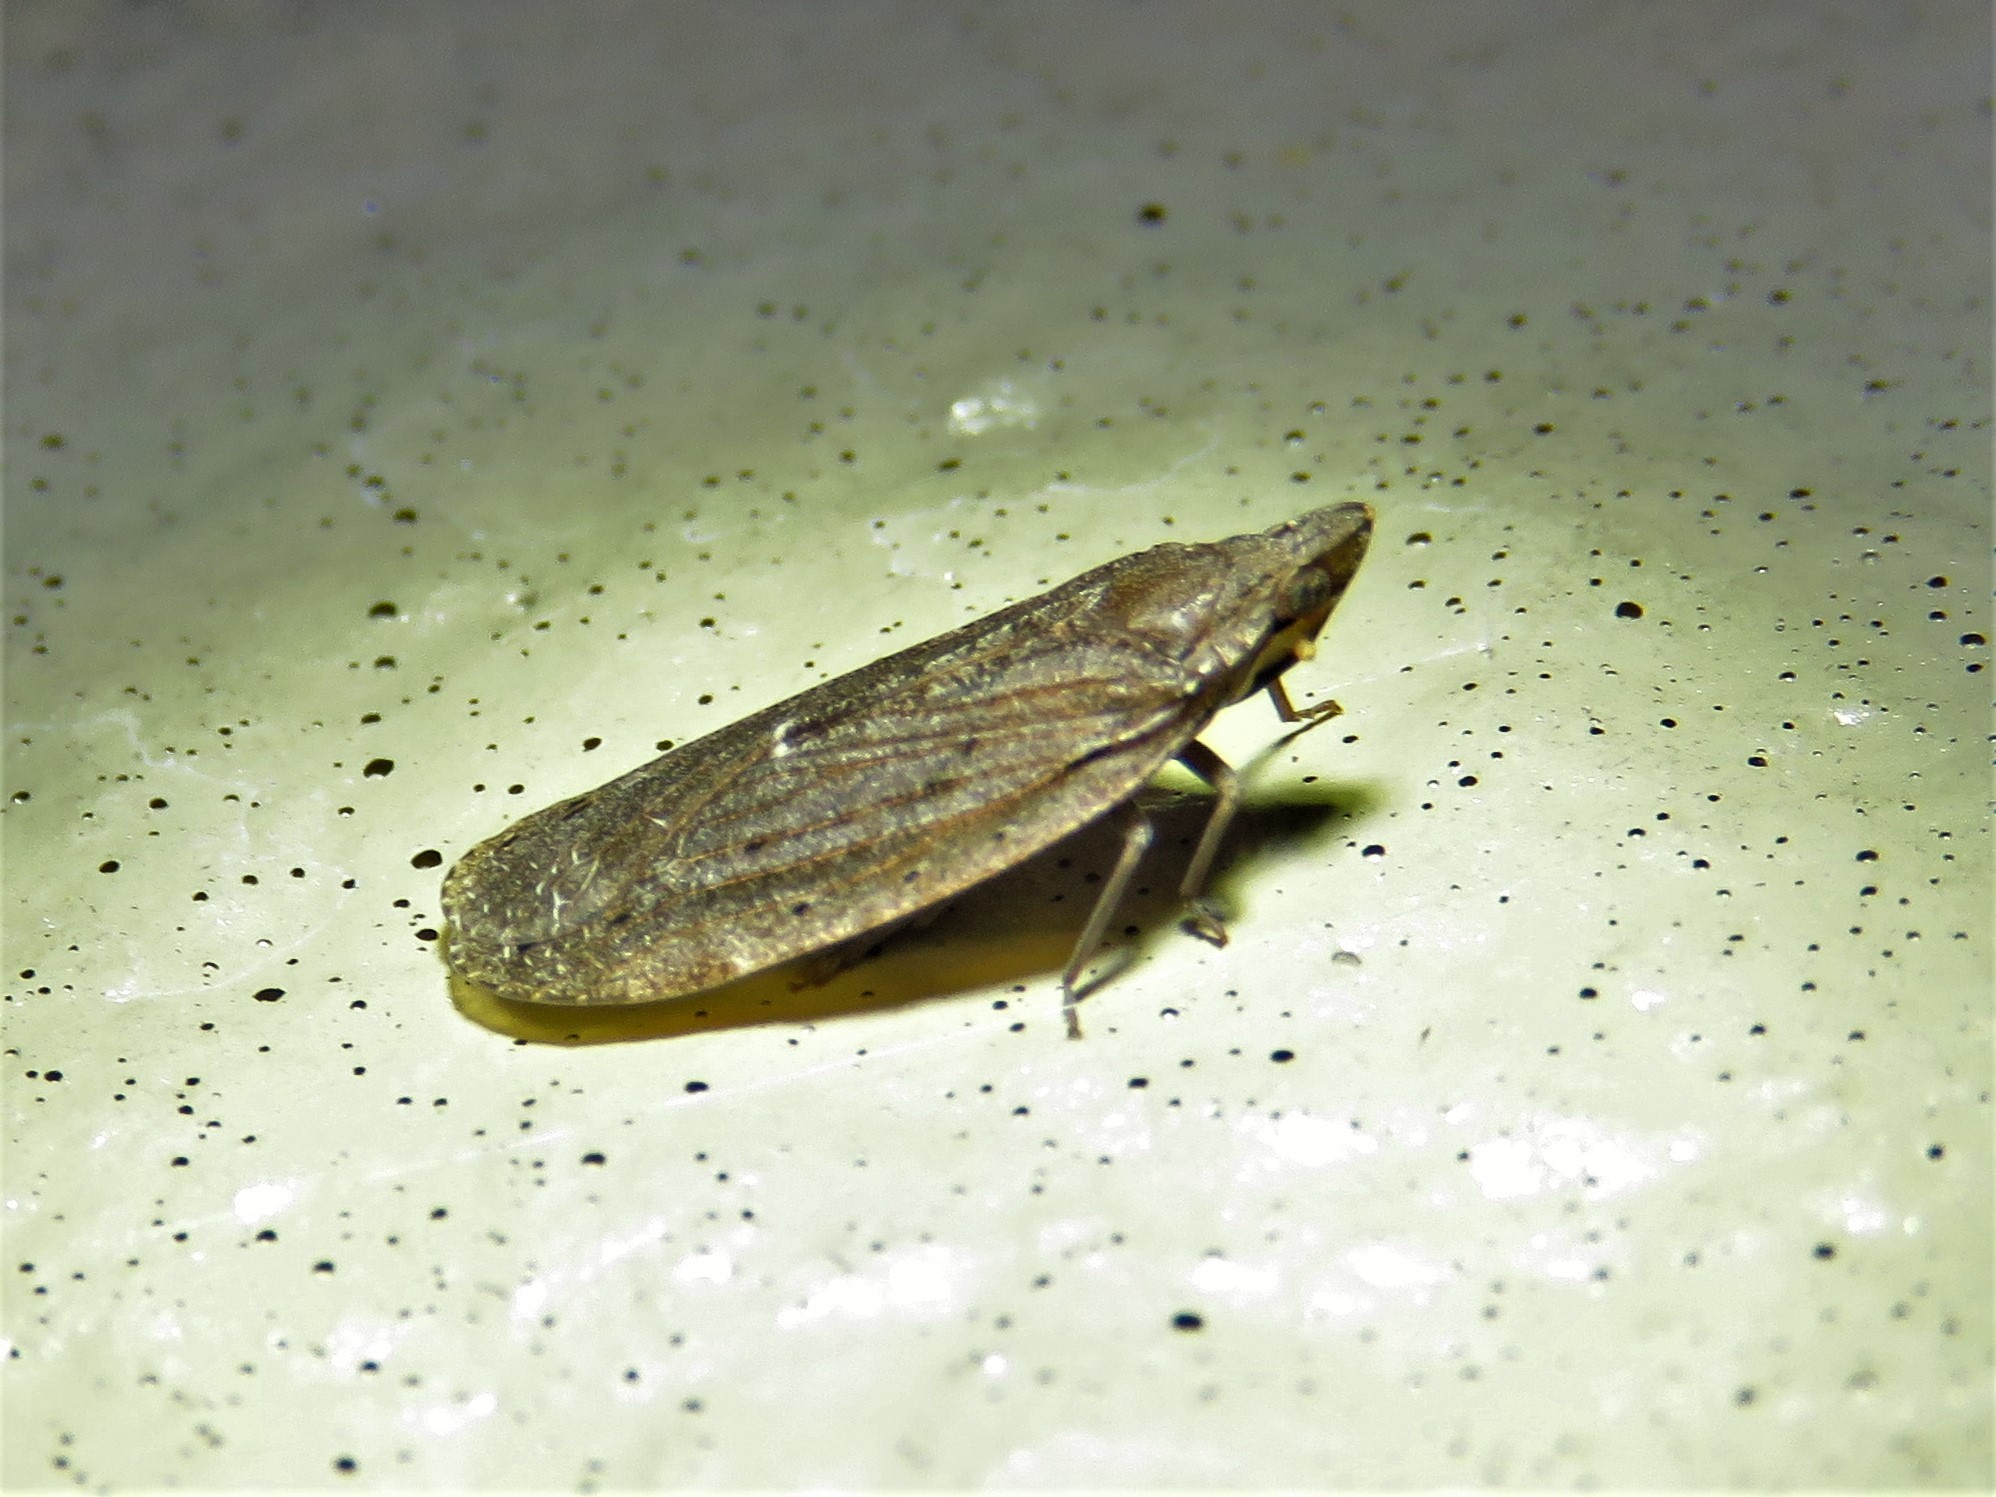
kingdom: Animalia
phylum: Arthropoda
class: Insecta
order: Hemiptera
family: Achilidae
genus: Cixidia
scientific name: Cixidia fusca
